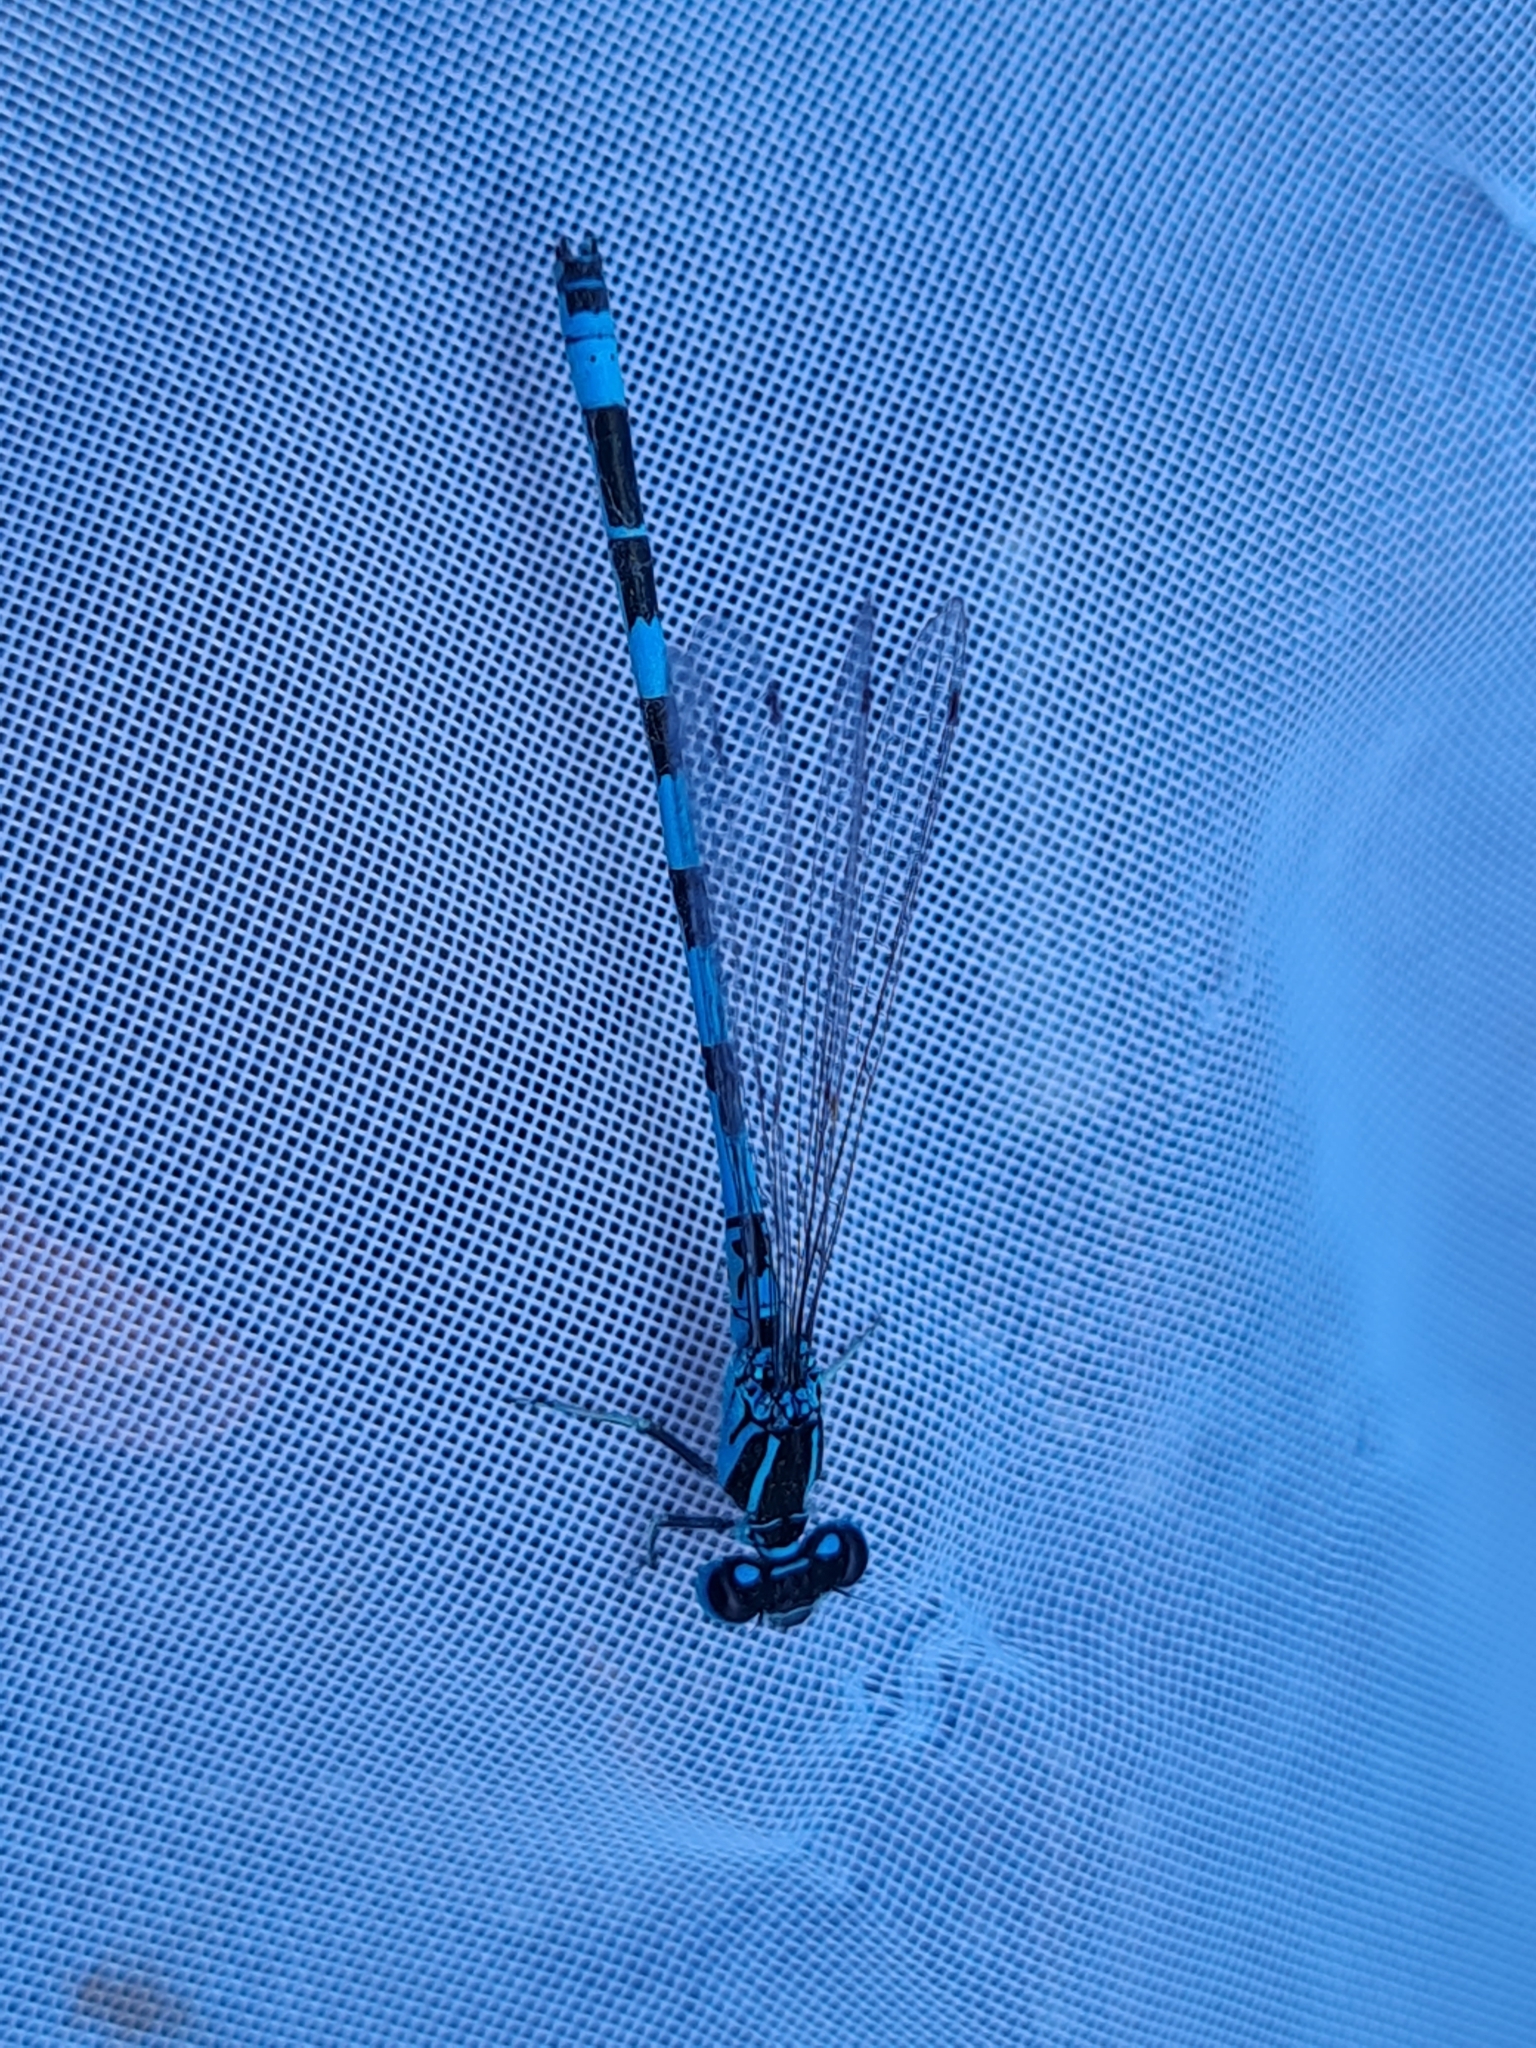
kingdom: Animalia
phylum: Arthropoda
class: Insecta
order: Odonata
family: Coenagrionidae
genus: Coenagrion
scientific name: Coenagrion mercuriale
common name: Southern damselfly
